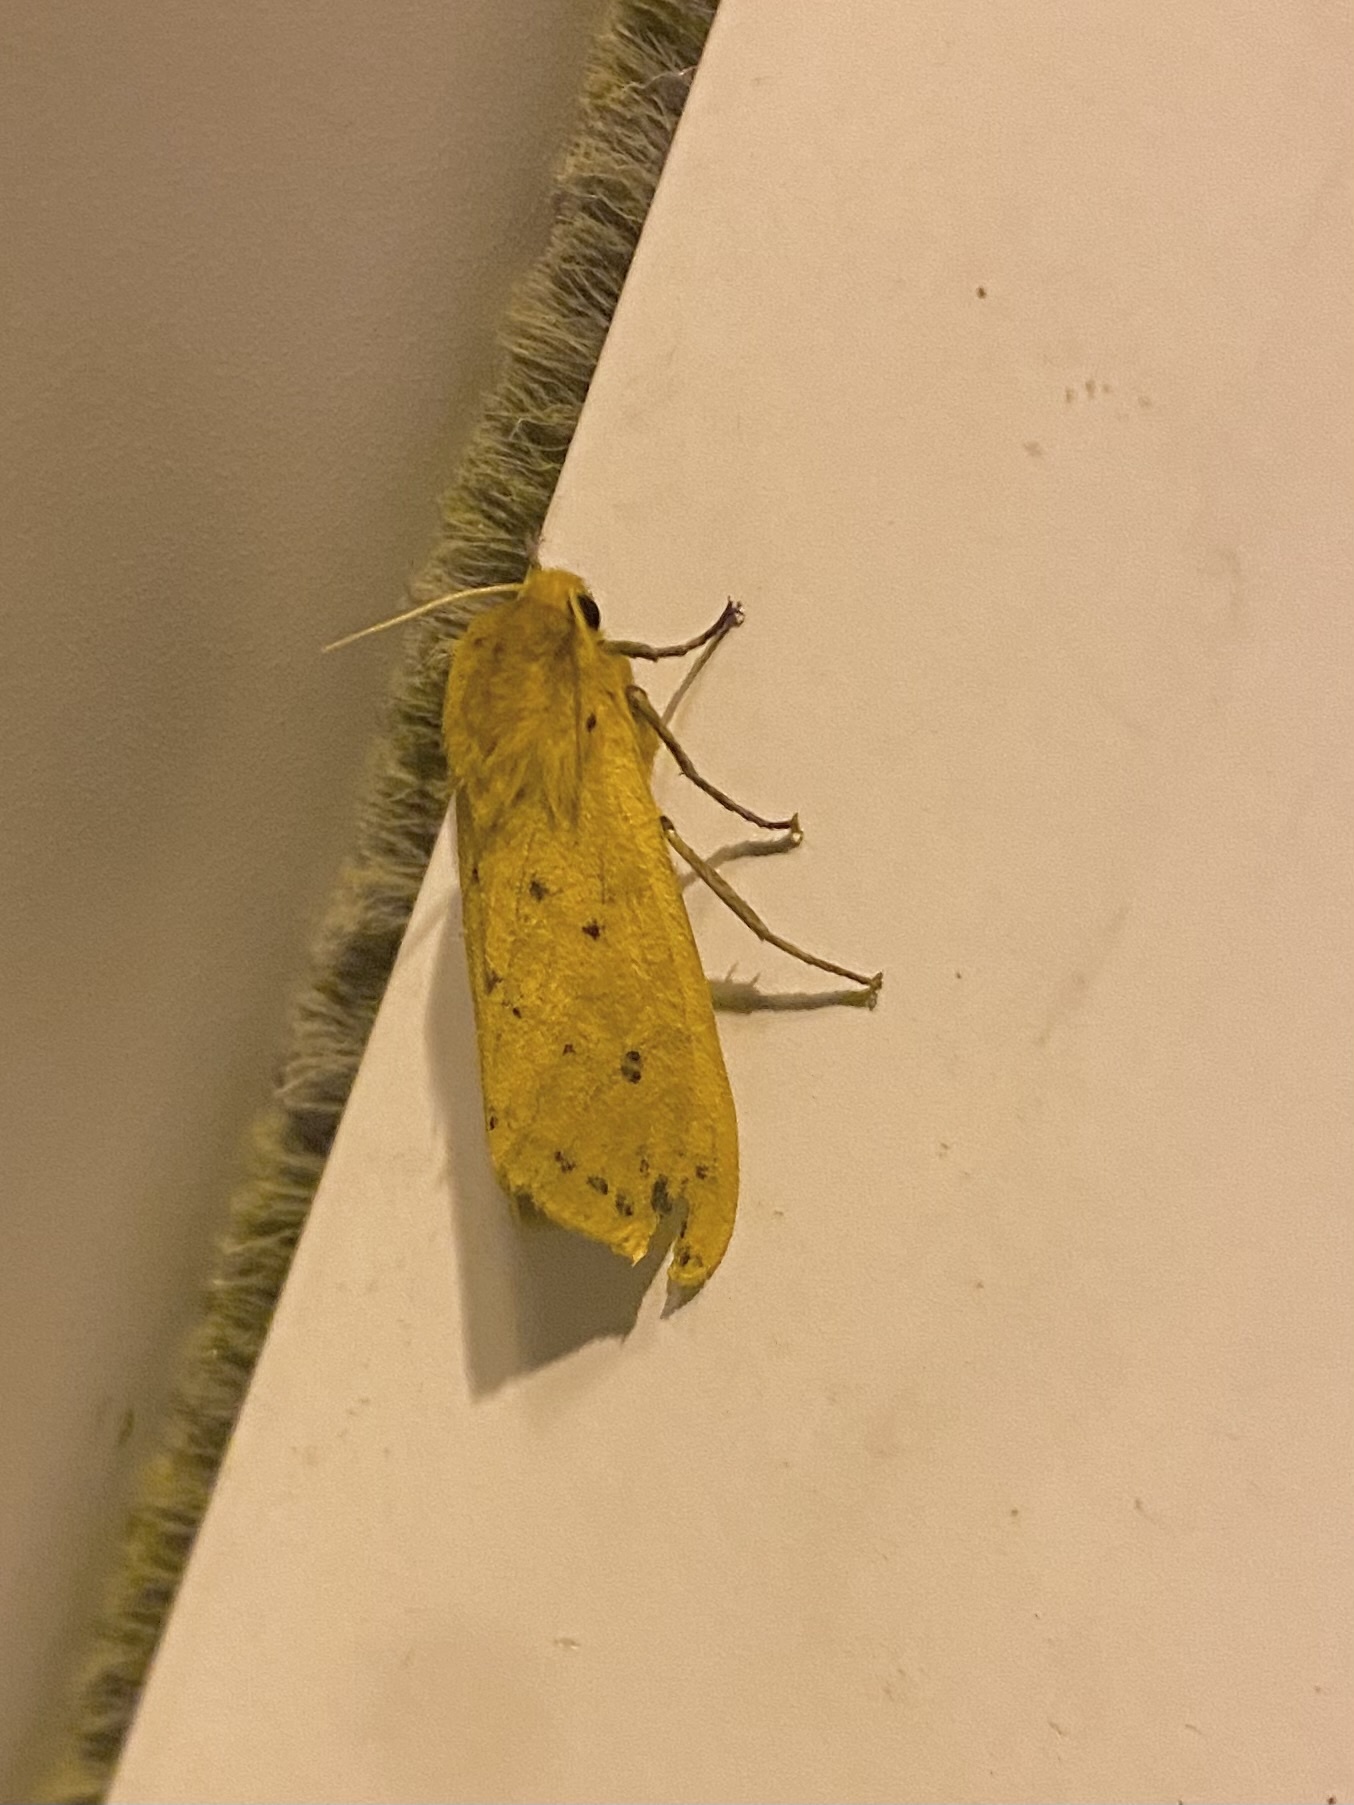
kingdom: Animalia
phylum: Arthropoda
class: Insecta
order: Lepidoptera
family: Erebidae
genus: Pyrrharctia
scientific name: Pyrrharctia isabella
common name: Isabella tiger moth
